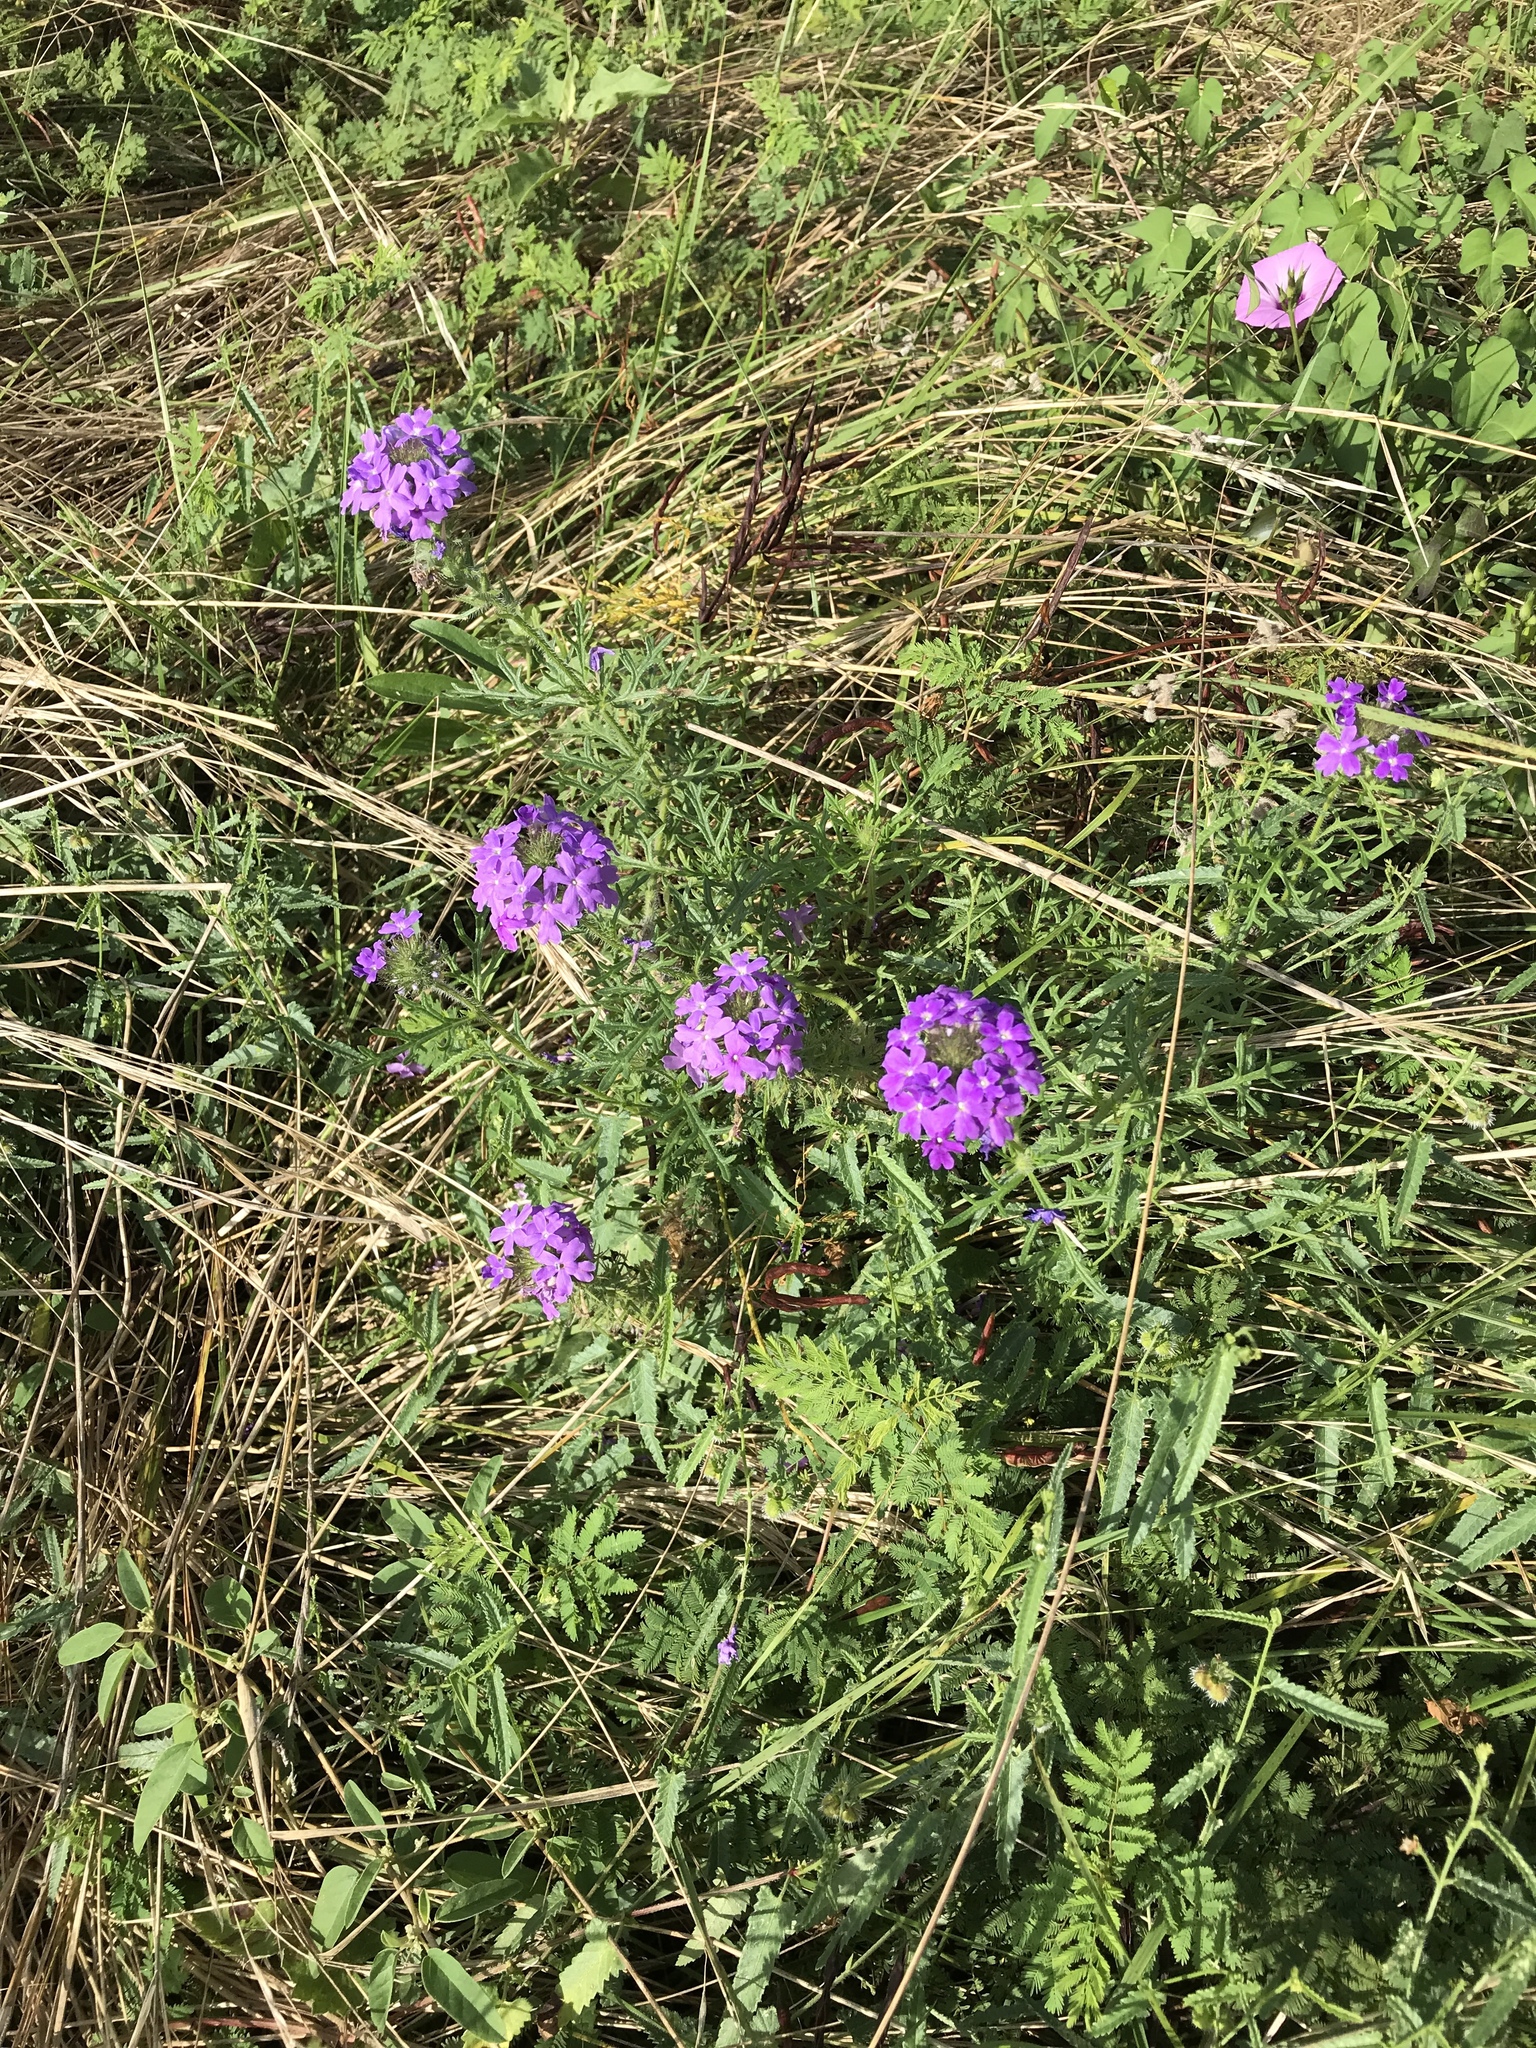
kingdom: Plantae
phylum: Tracheophyta
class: Magnoliopsida
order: Lamiales
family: Verbenaceae
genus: Verbena
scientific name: Verbena bipinnatifida
